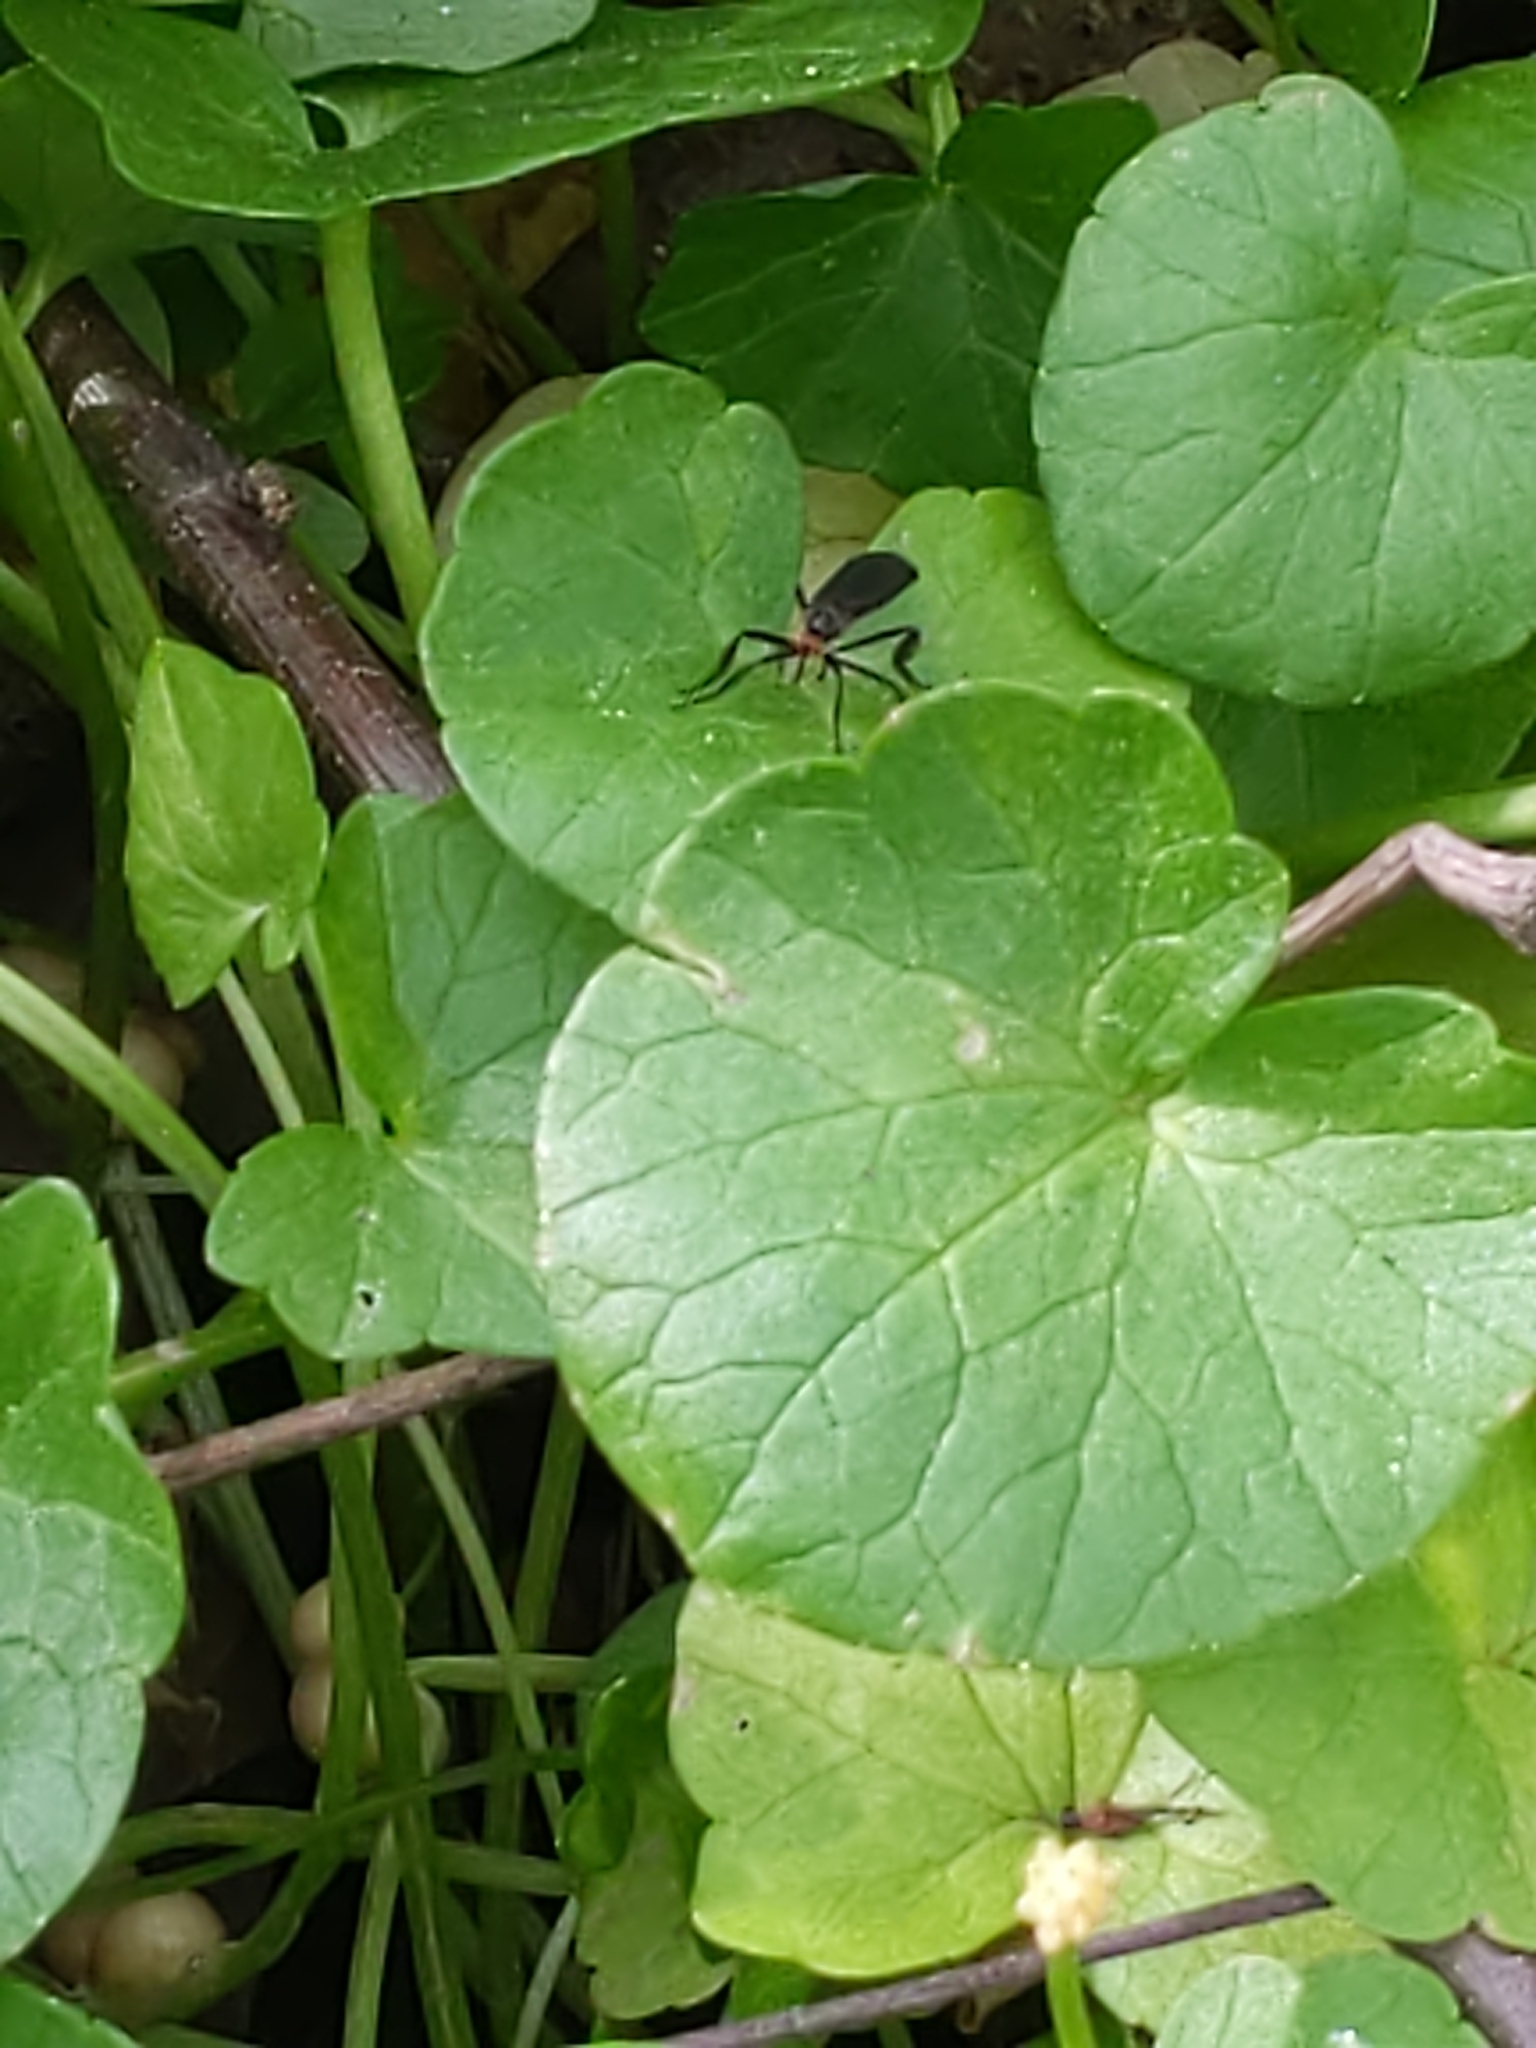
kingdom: Animalia
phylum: Arthropoda
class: Insecta
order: Diptera
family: Empididae
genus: Rhamphomyia
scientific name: Rhamphomyia longicauda
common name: Long-tailed dance fly
